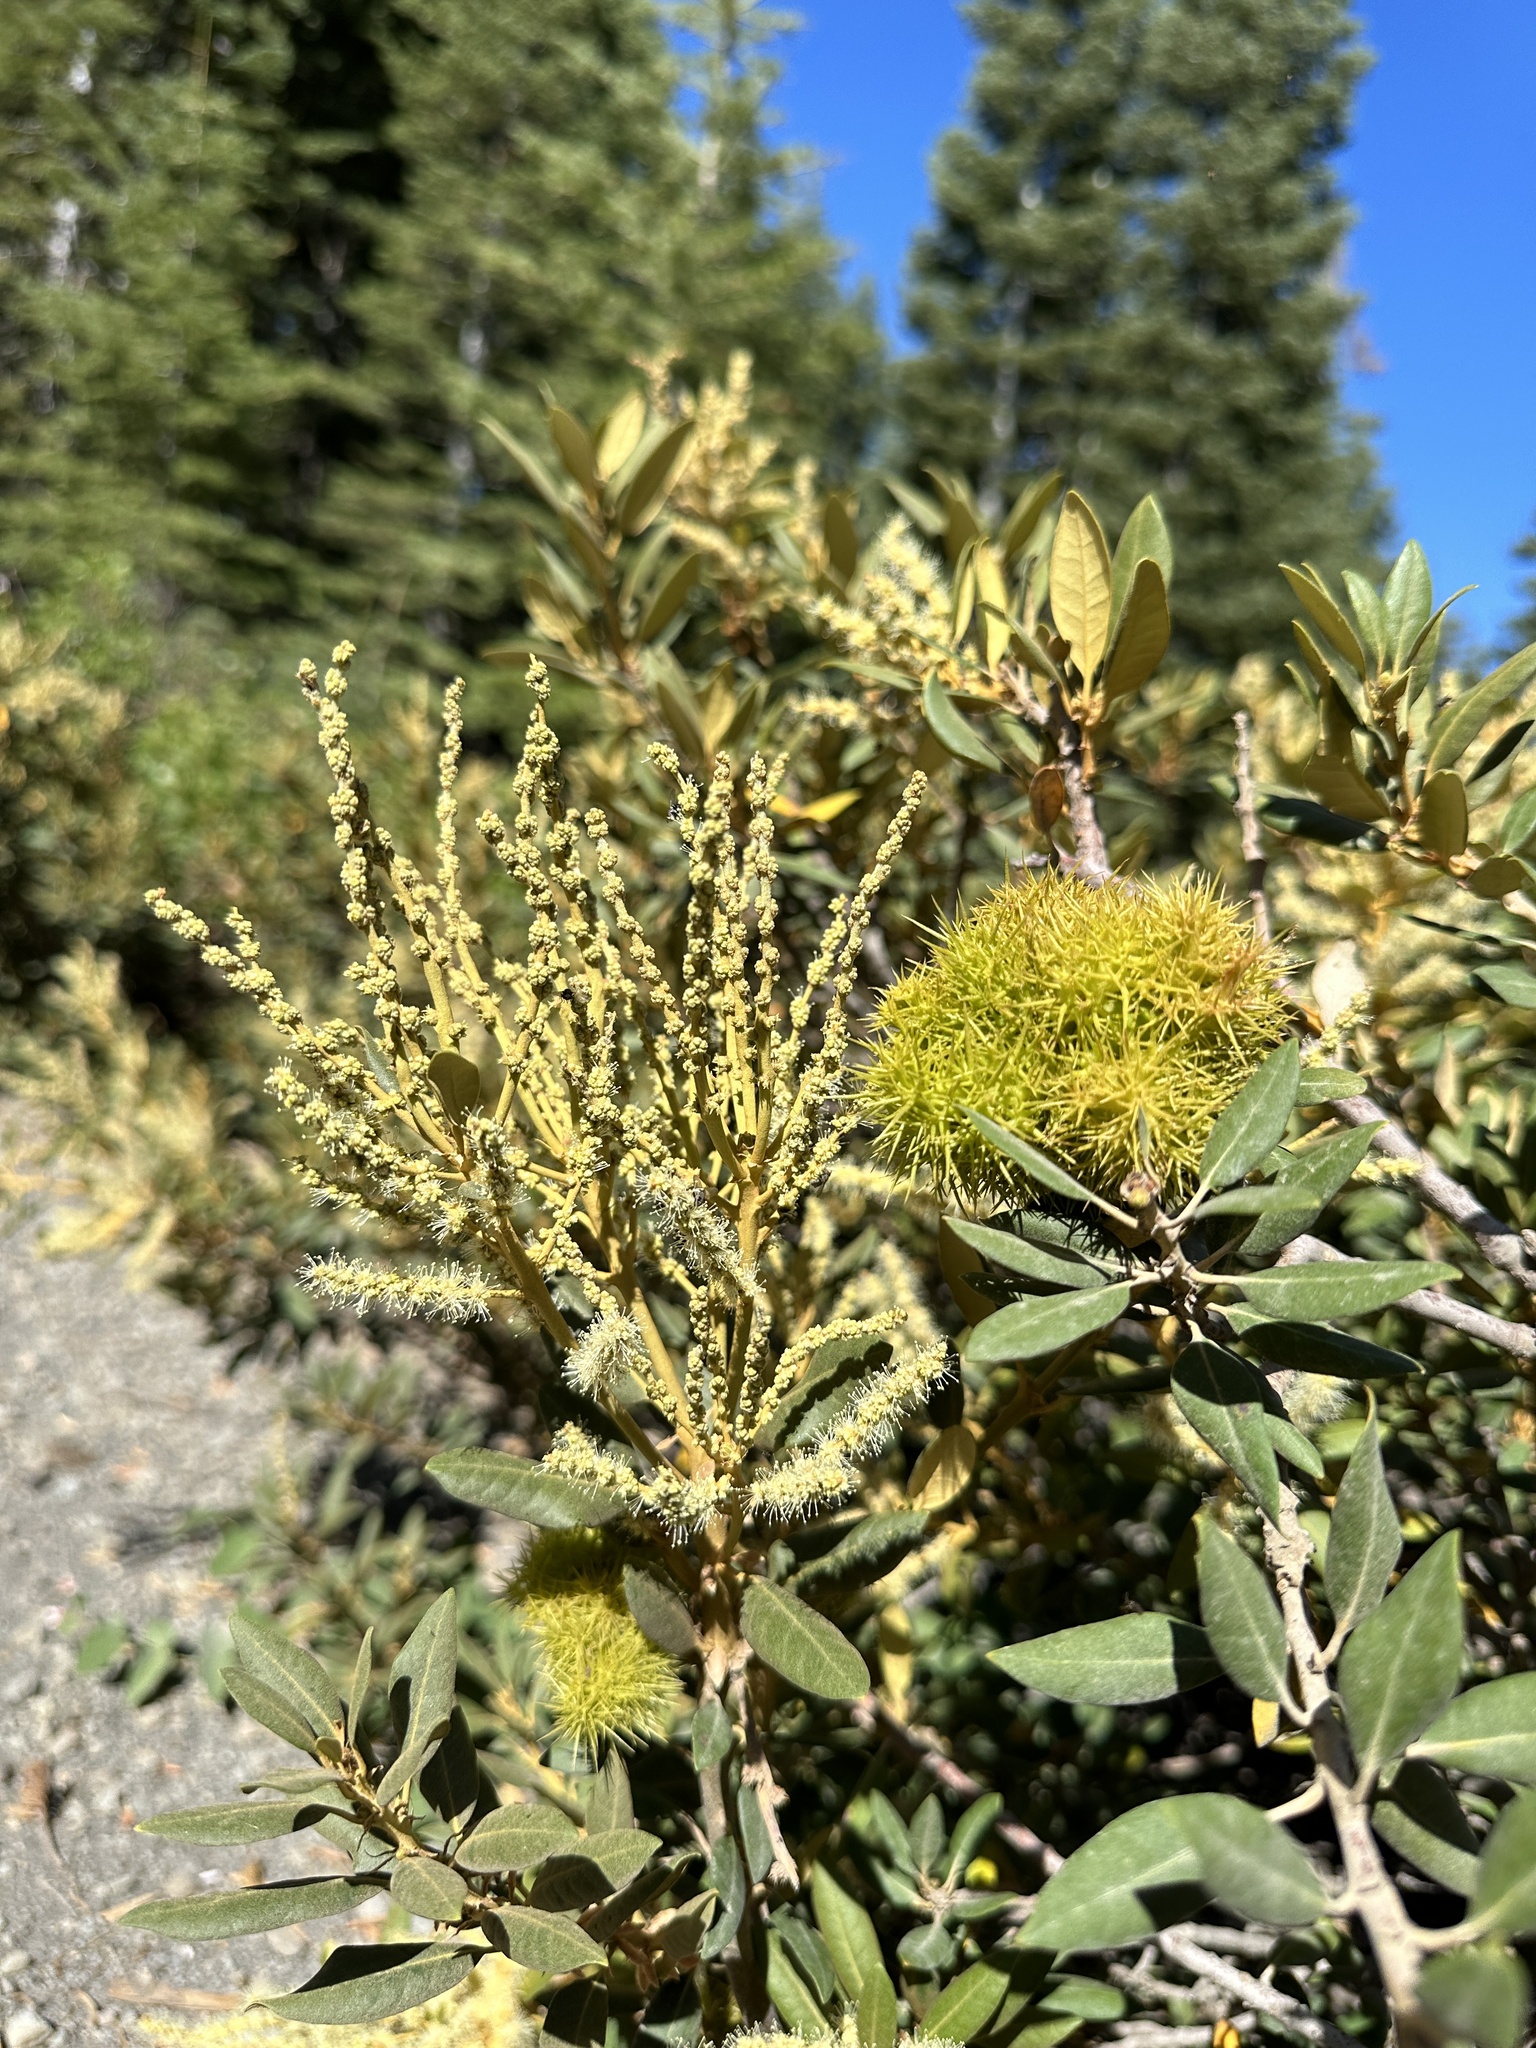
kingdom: Plantae
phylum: Tracheophyta
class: Magnoliopsida
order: Fagales
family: Fagaceae
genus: Chrysolepis
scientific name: Chrysolepis sempervirens
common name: Bush chinquapin
